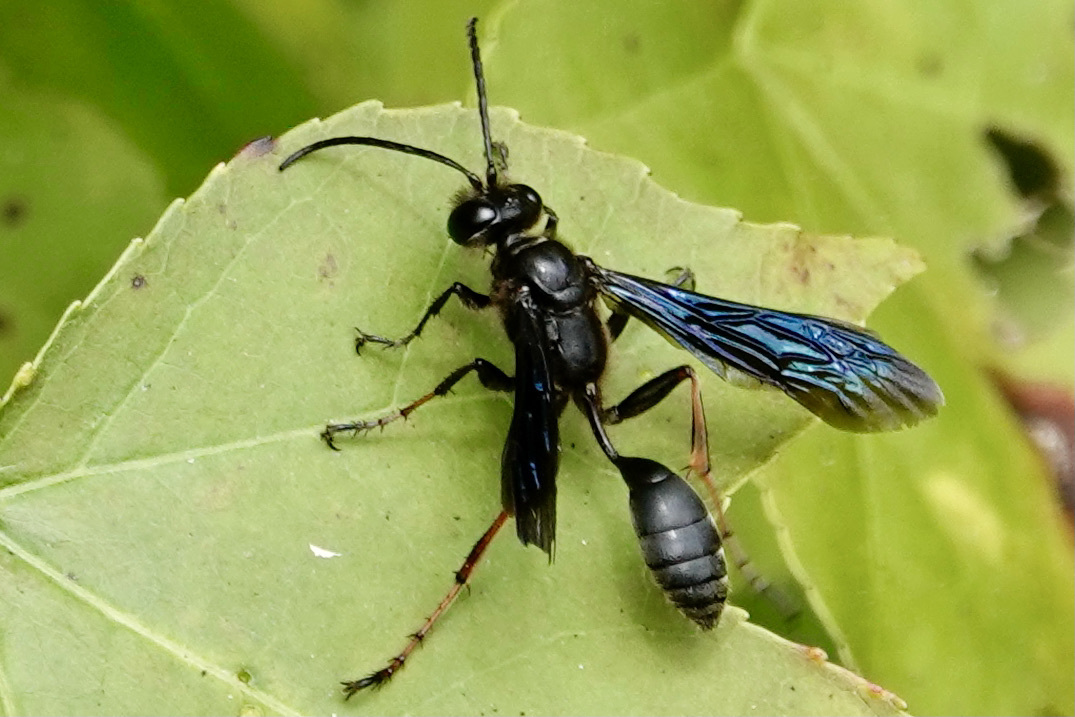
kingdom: Animalia
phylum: Arthropoda
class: Insecta
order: Hymenoptera
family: Sphecidae
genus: Isodontia
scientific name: Isodontia auripes
